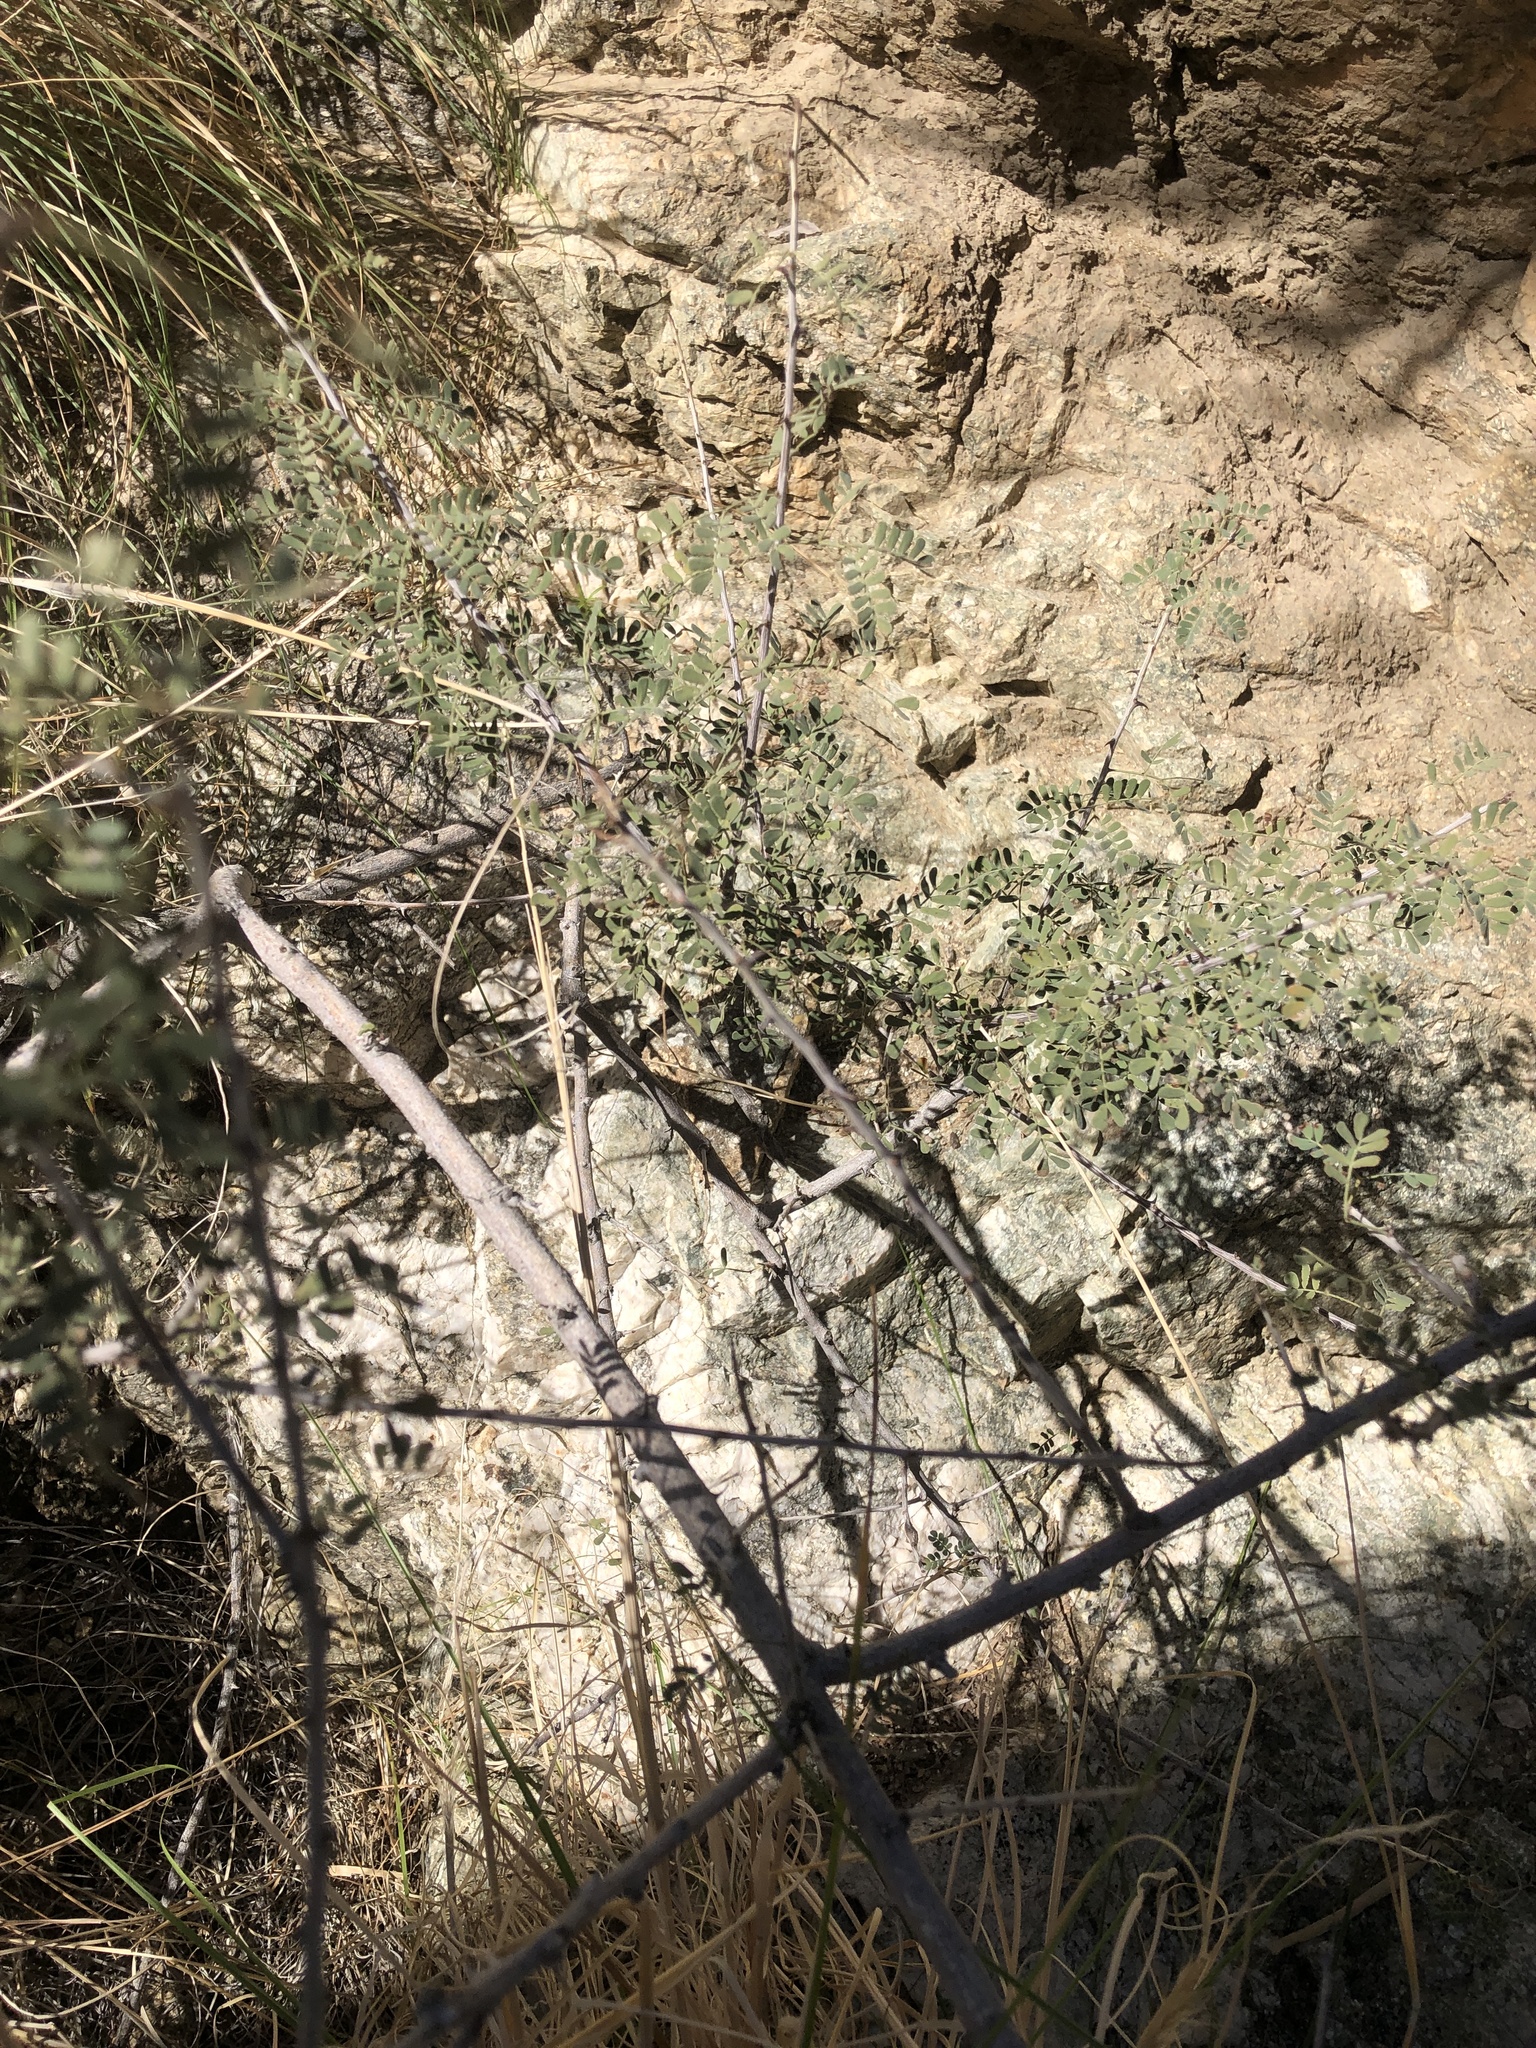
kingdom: Plantae
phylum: Tracheophyta
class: Magnoliopsida
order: Fabales
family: Fabaceae
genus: Senegalia
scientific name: Senegalia greggii
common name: Texas-mimosa
